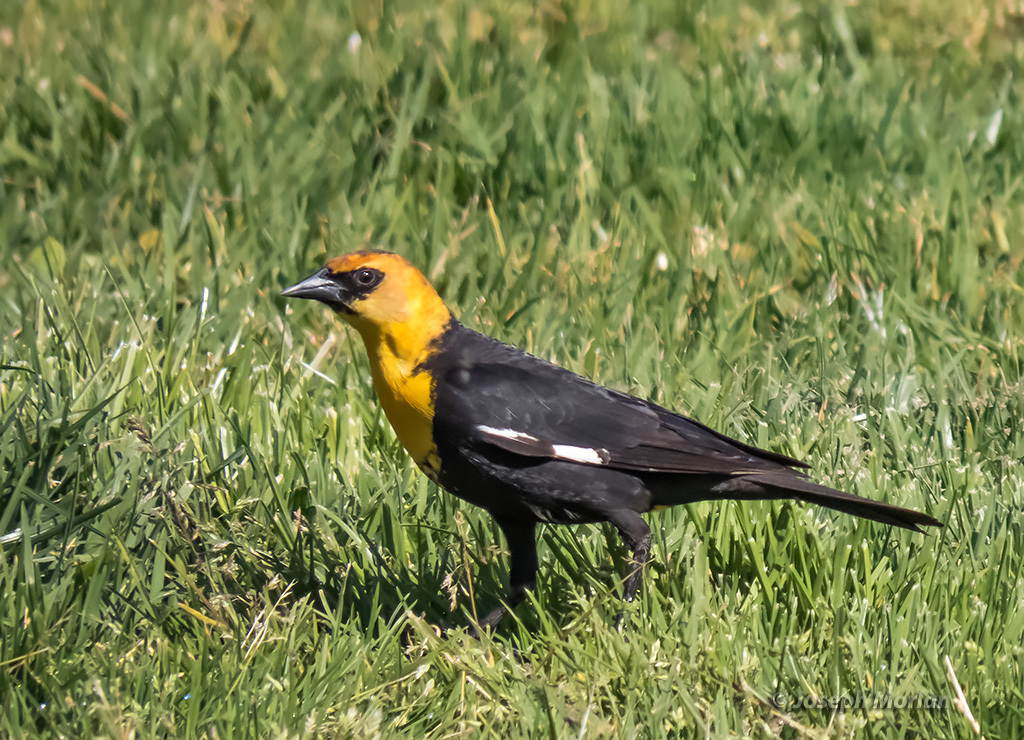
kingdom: Animalia
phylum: Chordata
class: Aves
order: Passeriformes
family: Icteridae
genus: Xanthocephalus
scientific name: Xanthocephalus xanthocephalus
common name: Yellow-headed blackbird
